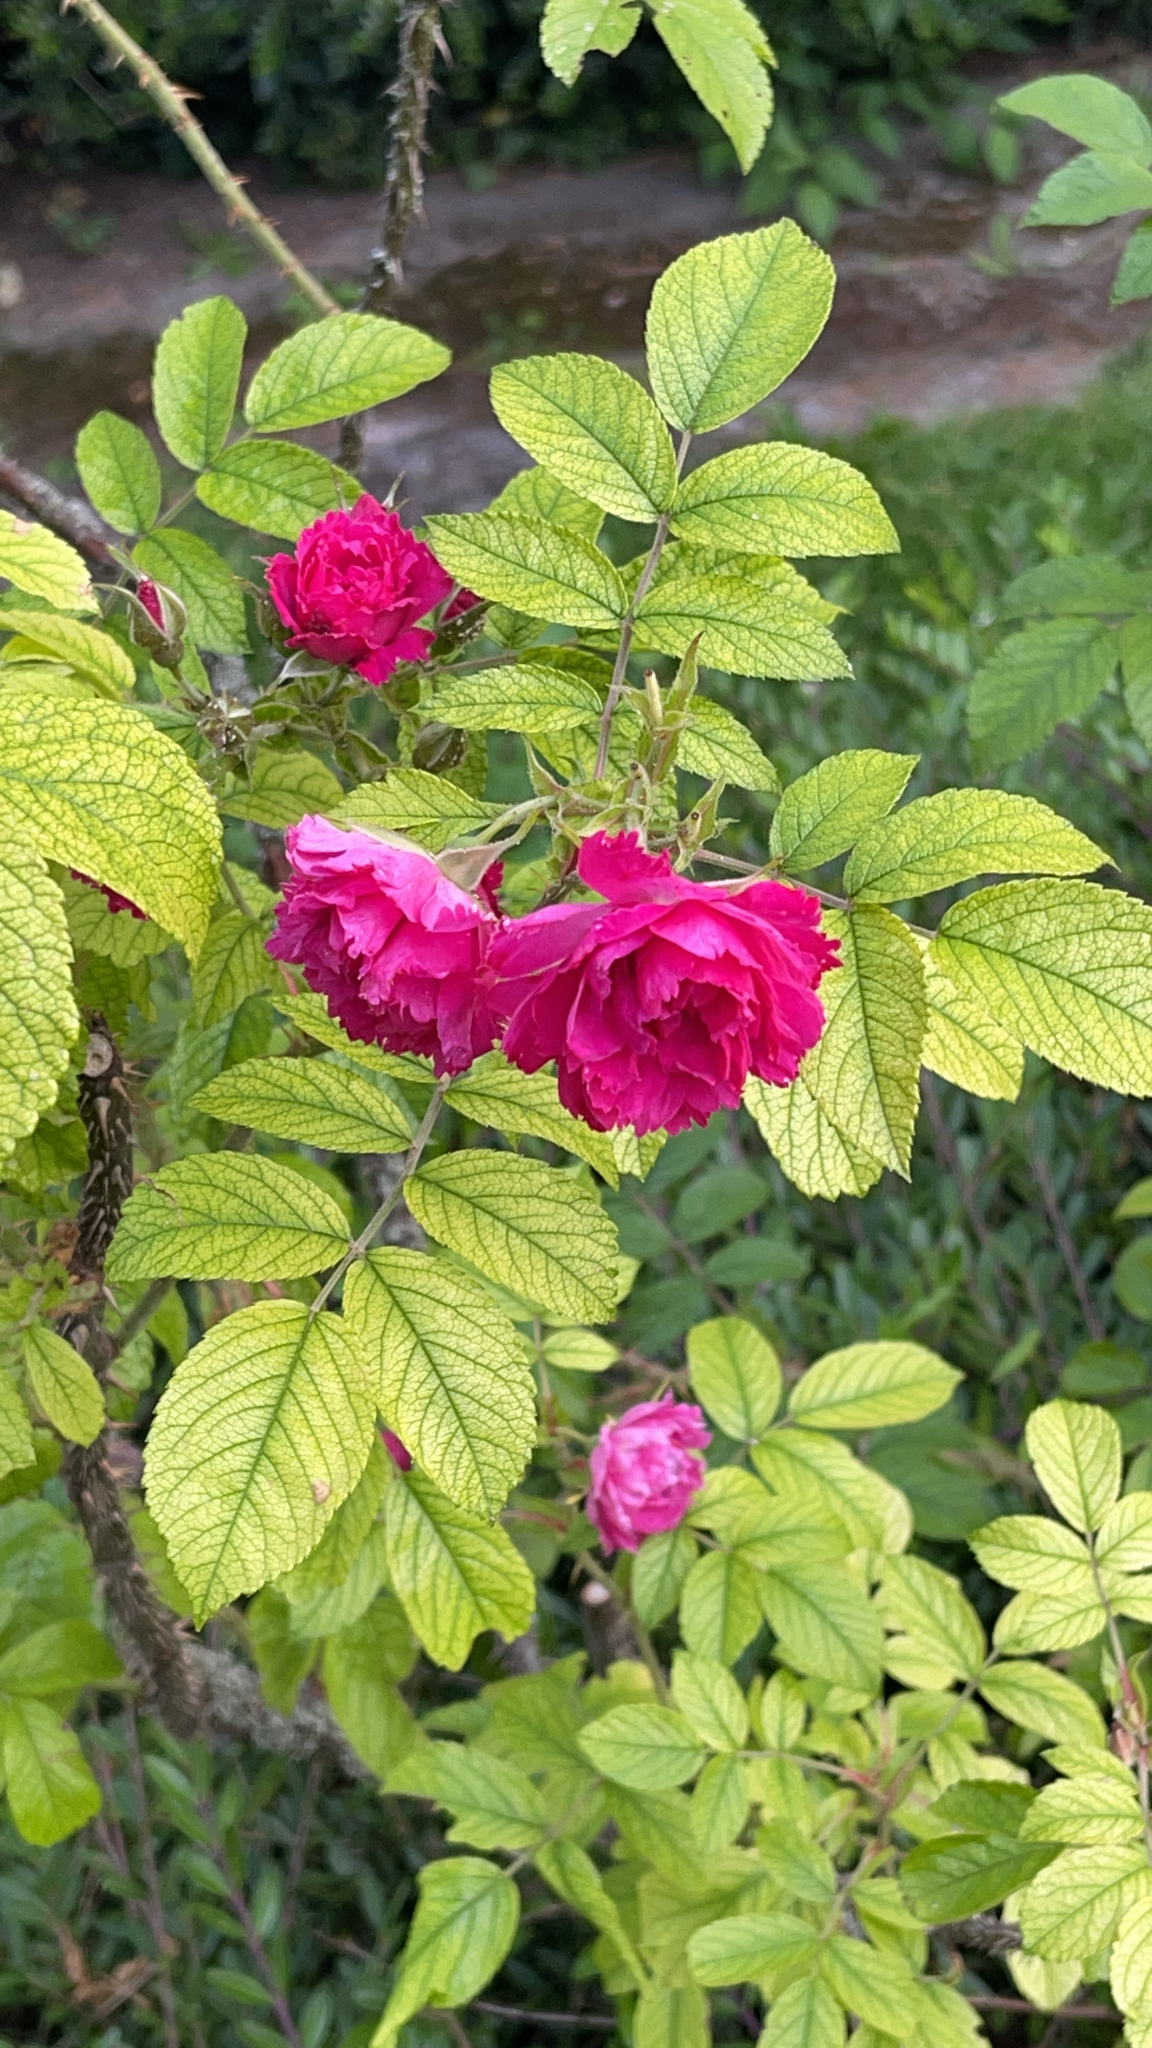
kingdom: Plantae
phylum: Tracheophyta
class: Magnoliopsida
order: Rosales
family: Rosaceae
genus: Rosa
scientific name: Rosa rugosa
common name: Japanese rose
